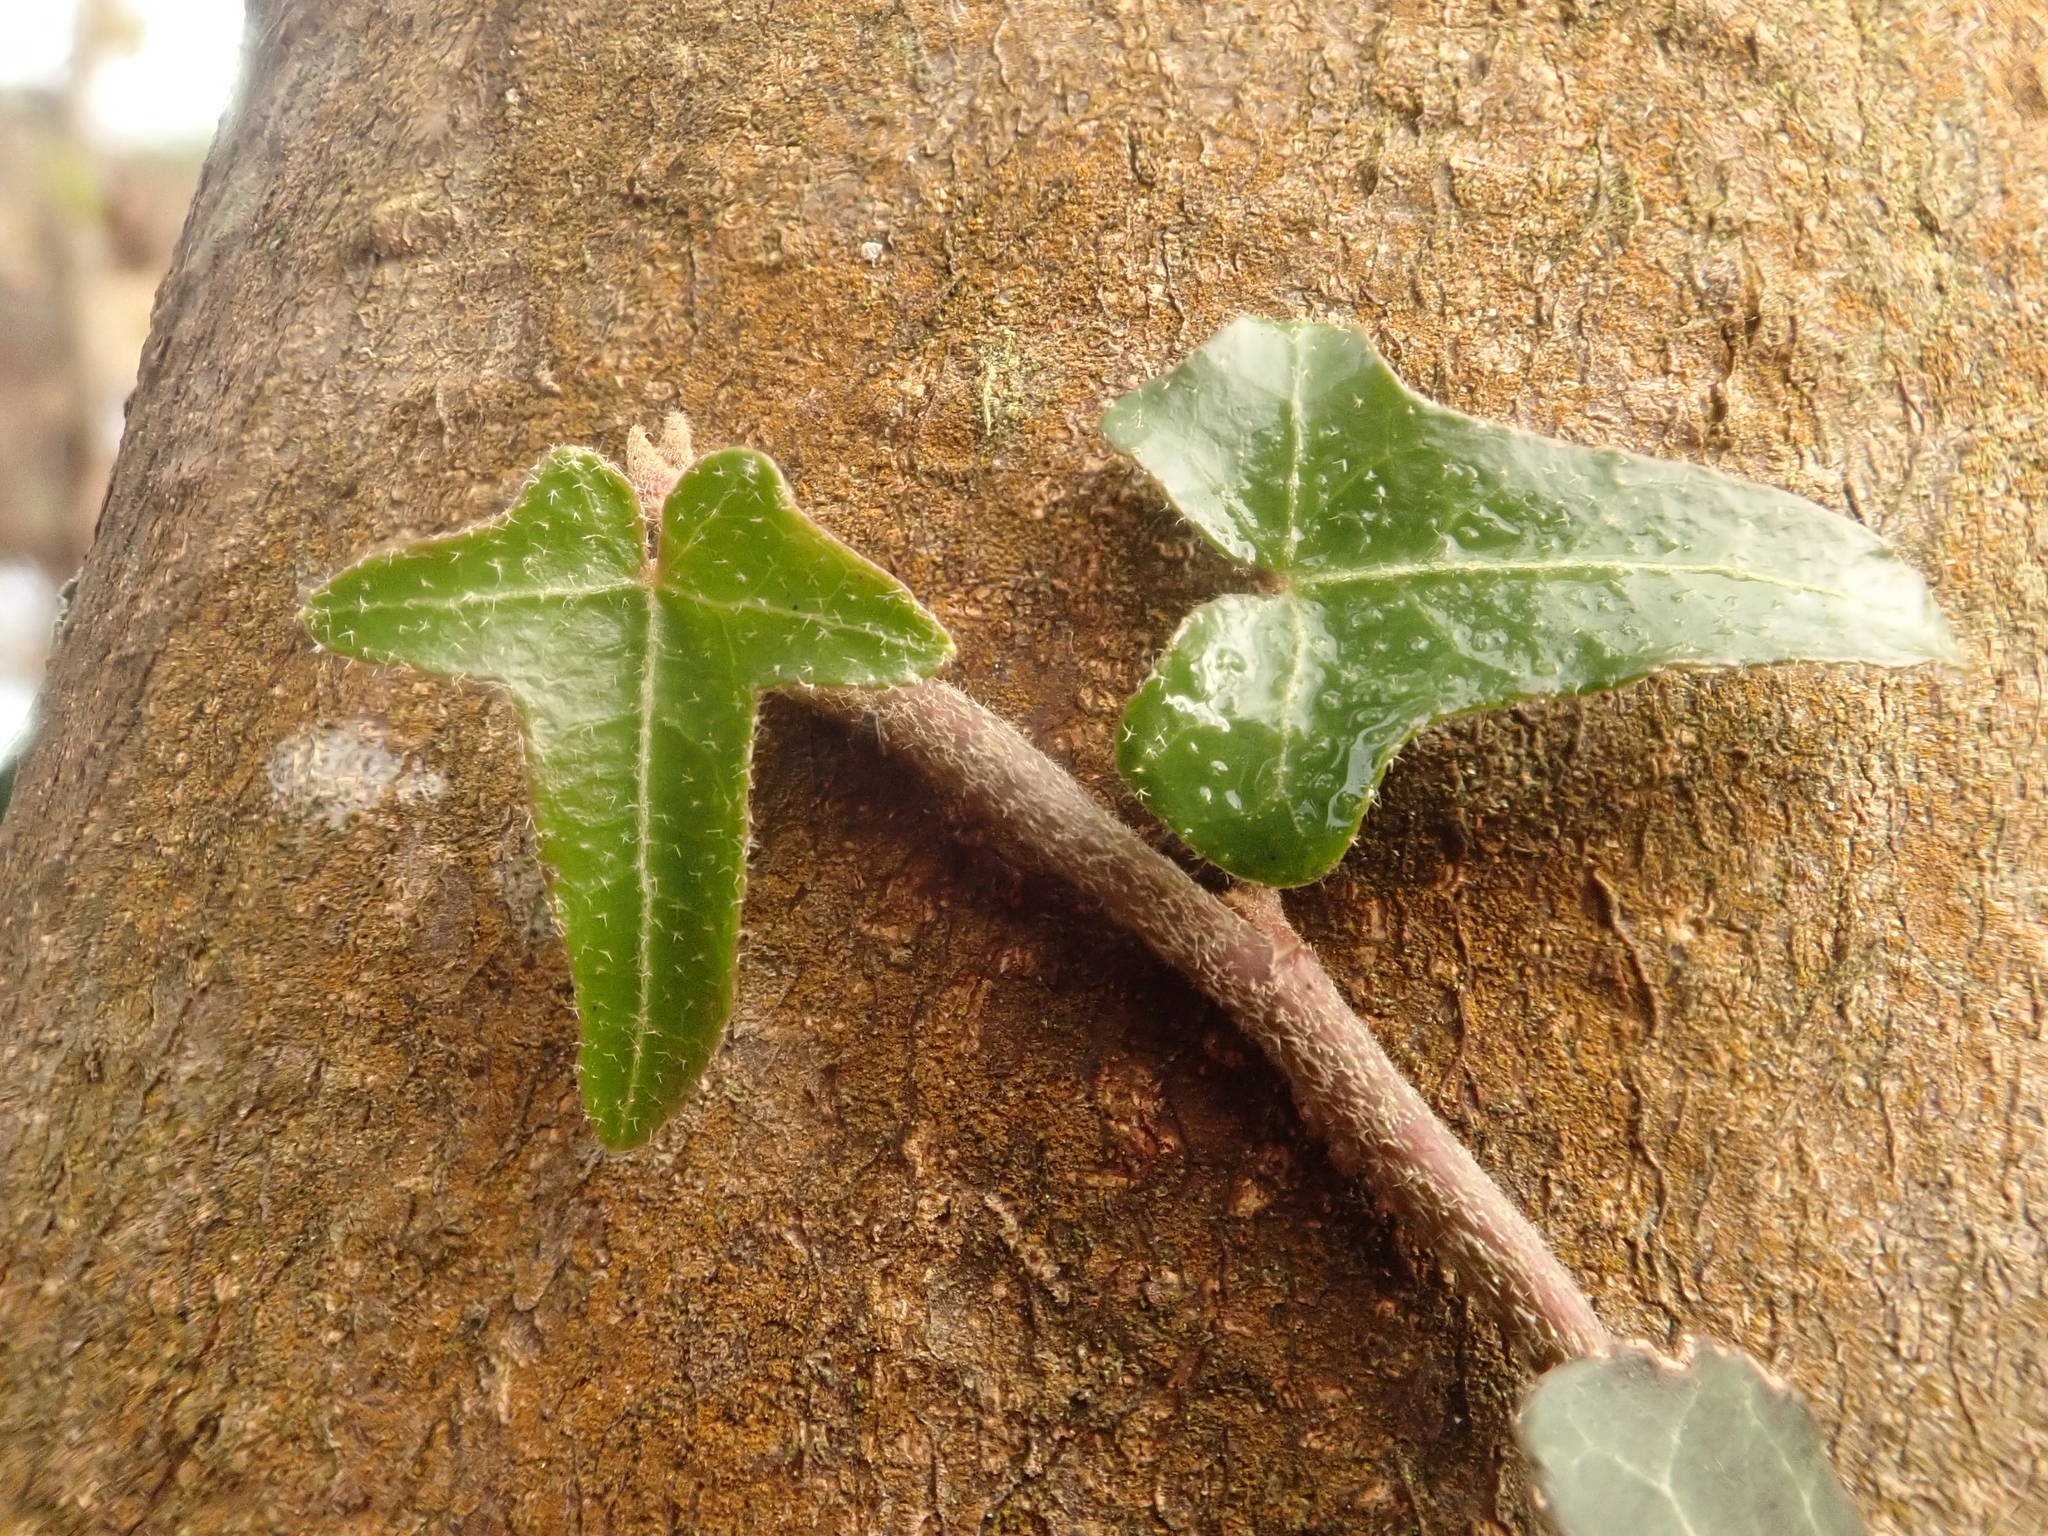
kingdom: Plantae
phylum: Tracheophyta
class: Magnoliopsida
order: Apiales
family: Araliaceae
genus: Hedera
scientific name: Hedera helix
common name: Ivy
